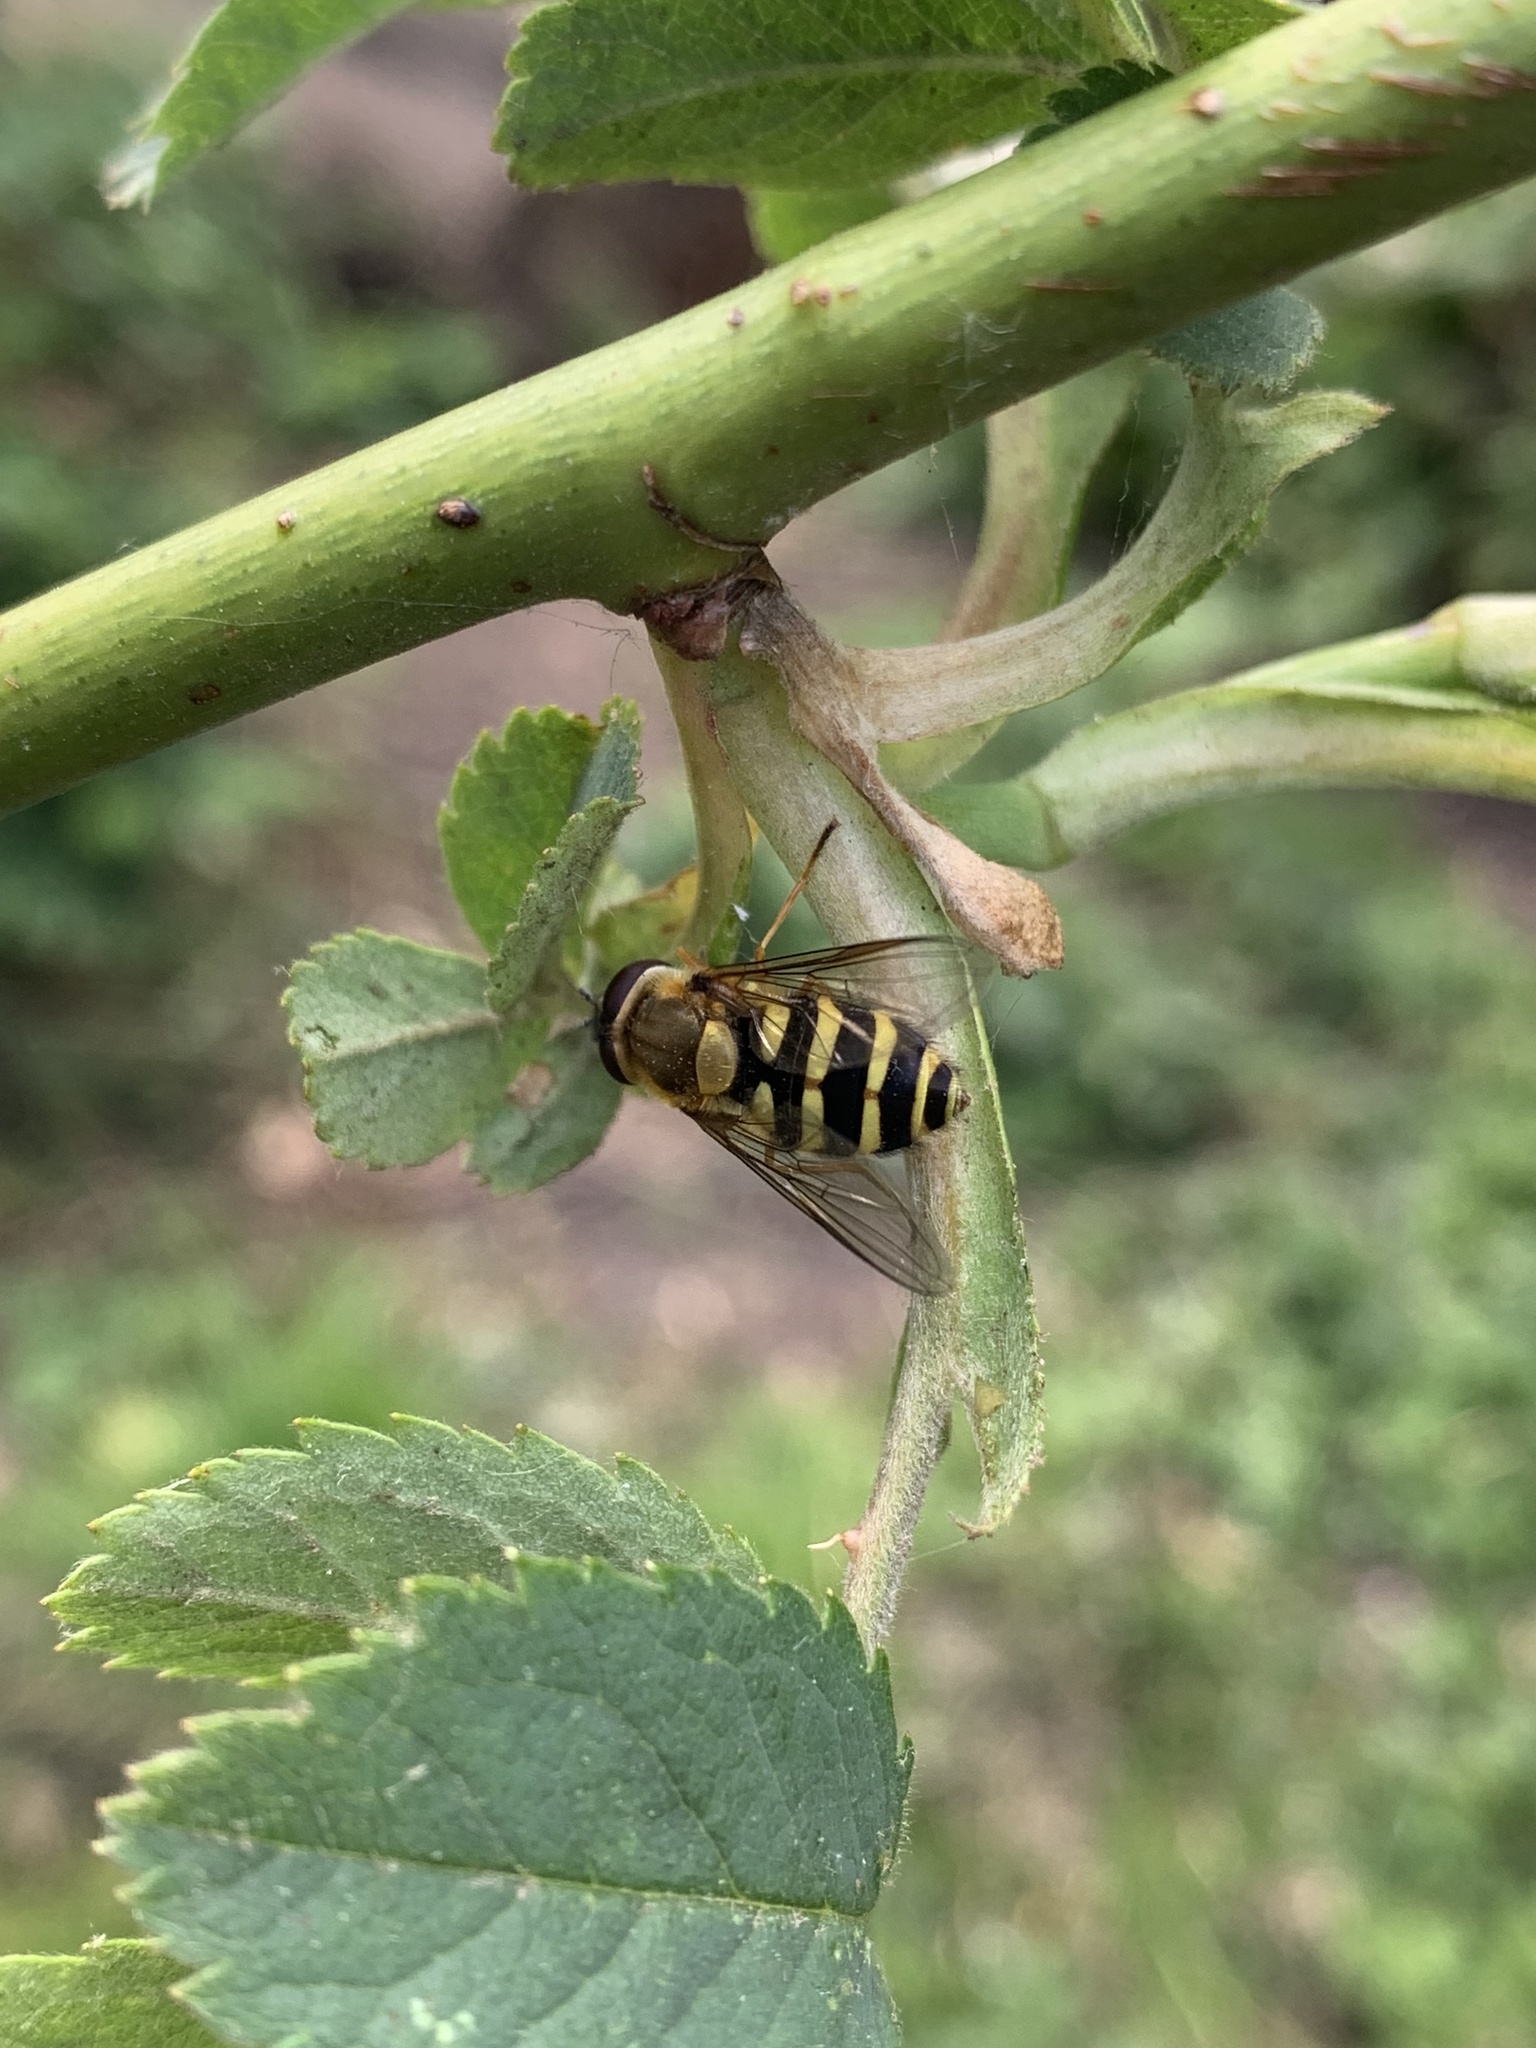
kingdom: Animalia
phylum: Arthropoda
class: Insecta
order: Diptera
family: Syrphidae
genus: Syrphus
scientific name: Syrphus
